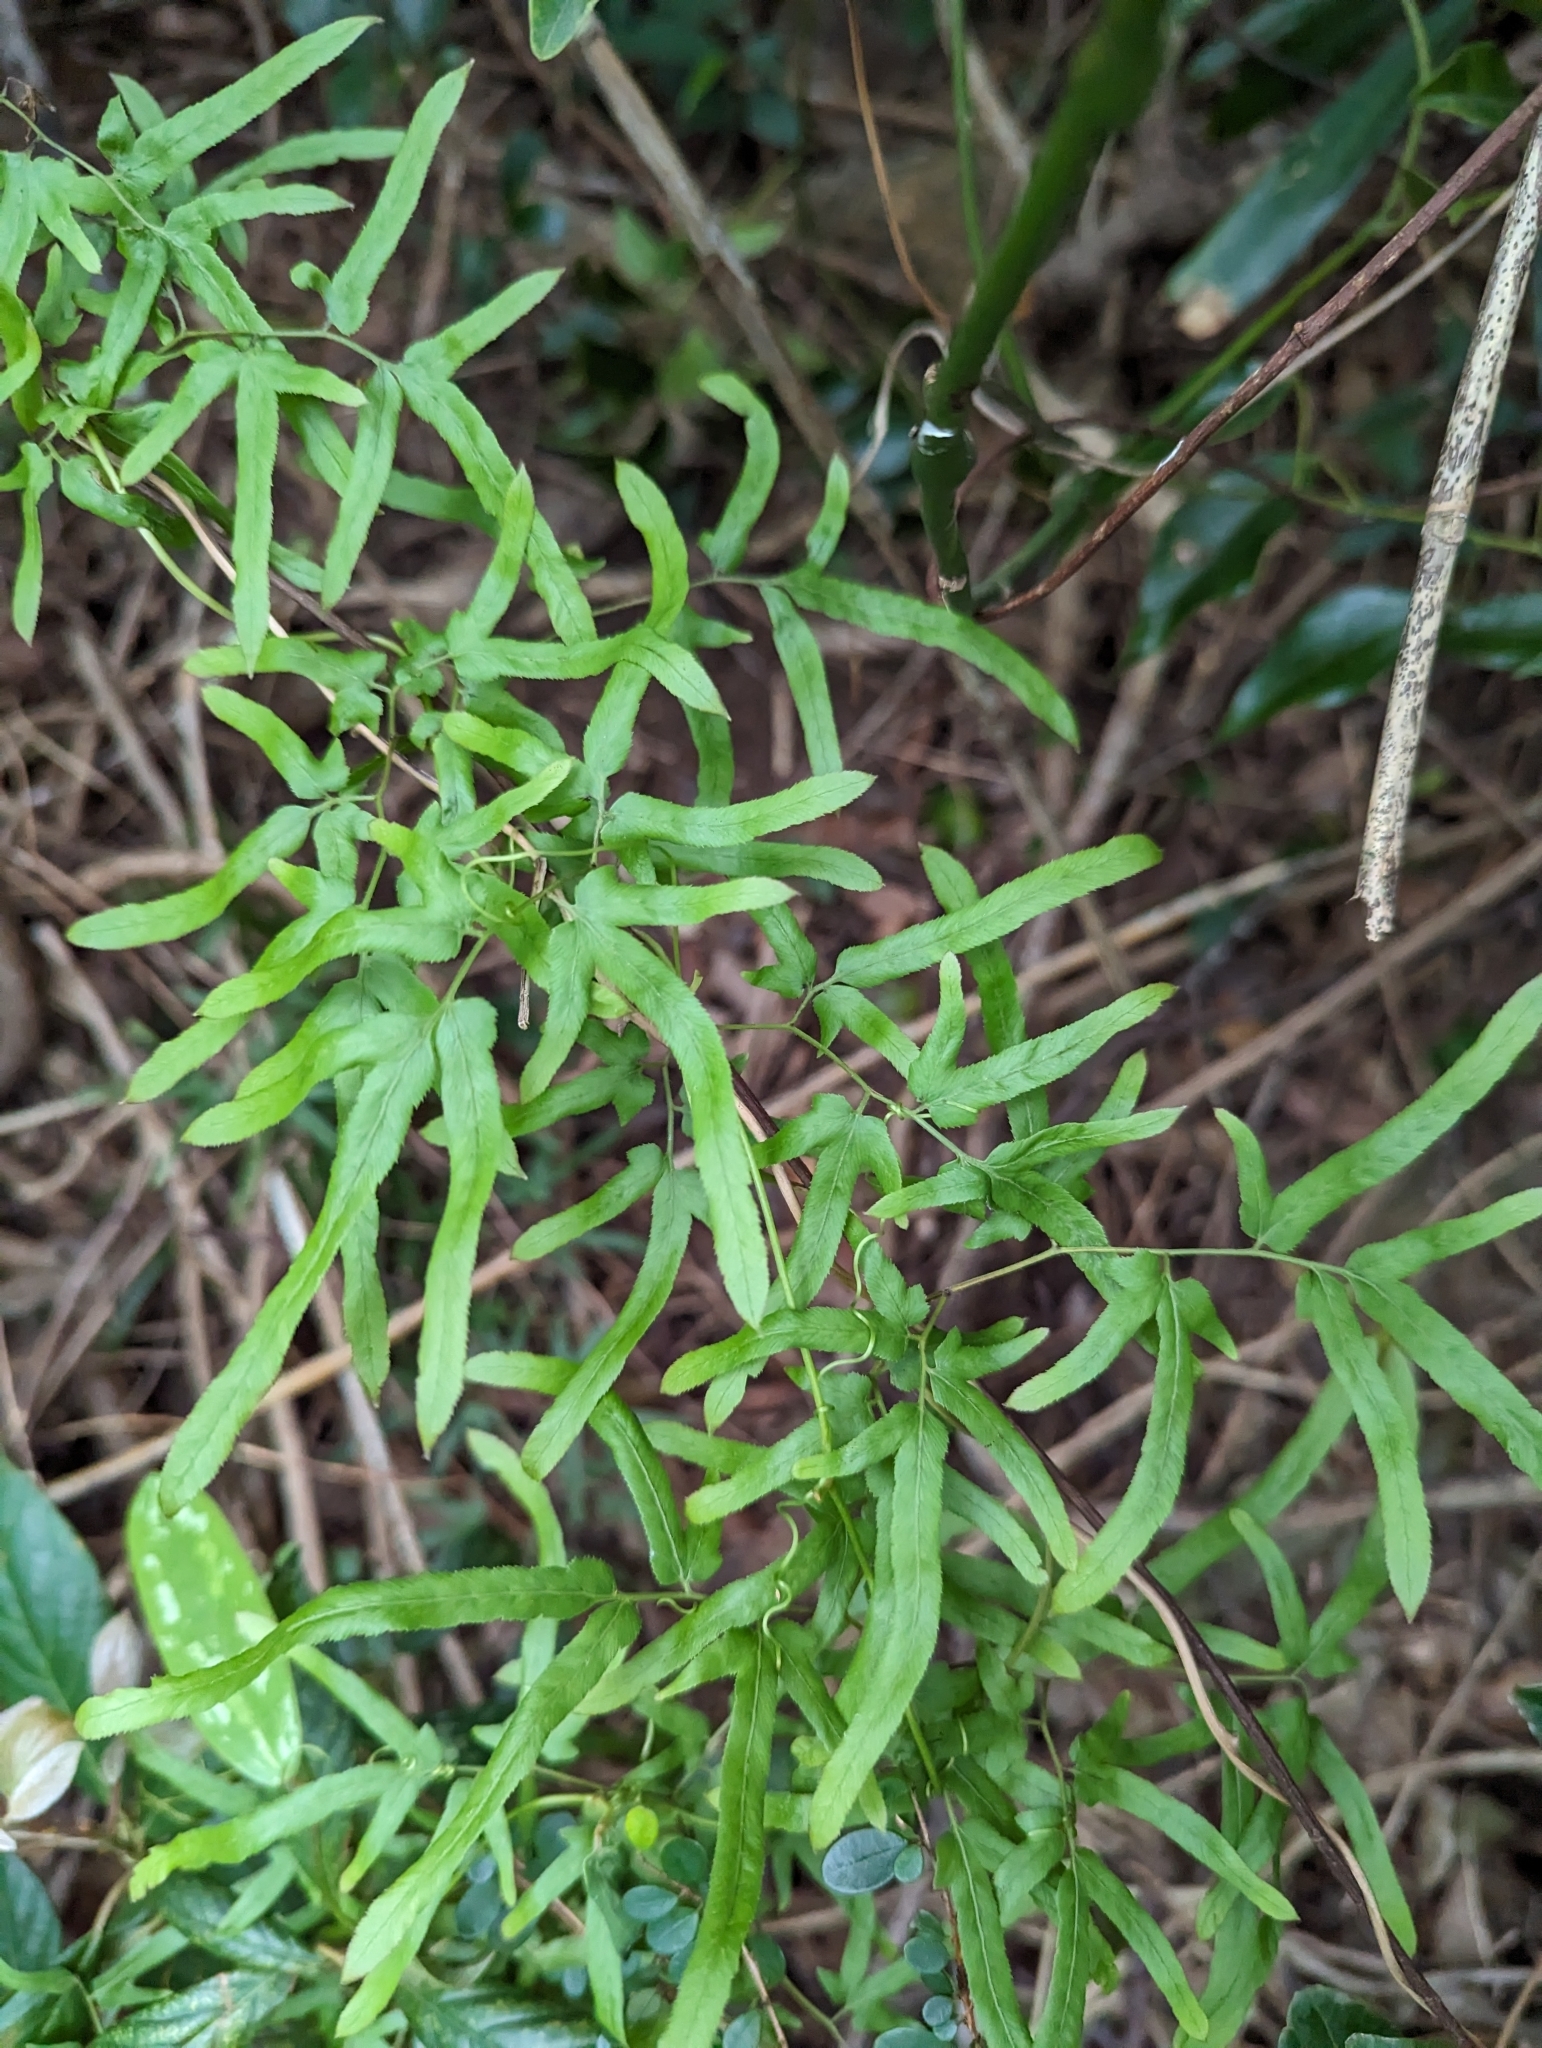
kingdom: Plantae
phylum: Tracheophyta
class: Polypodiopsida
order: Schizaeales
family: Lygodiaceae
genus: Lygodium
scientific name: Lygodium japonicum
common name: Japanese climbing fern
